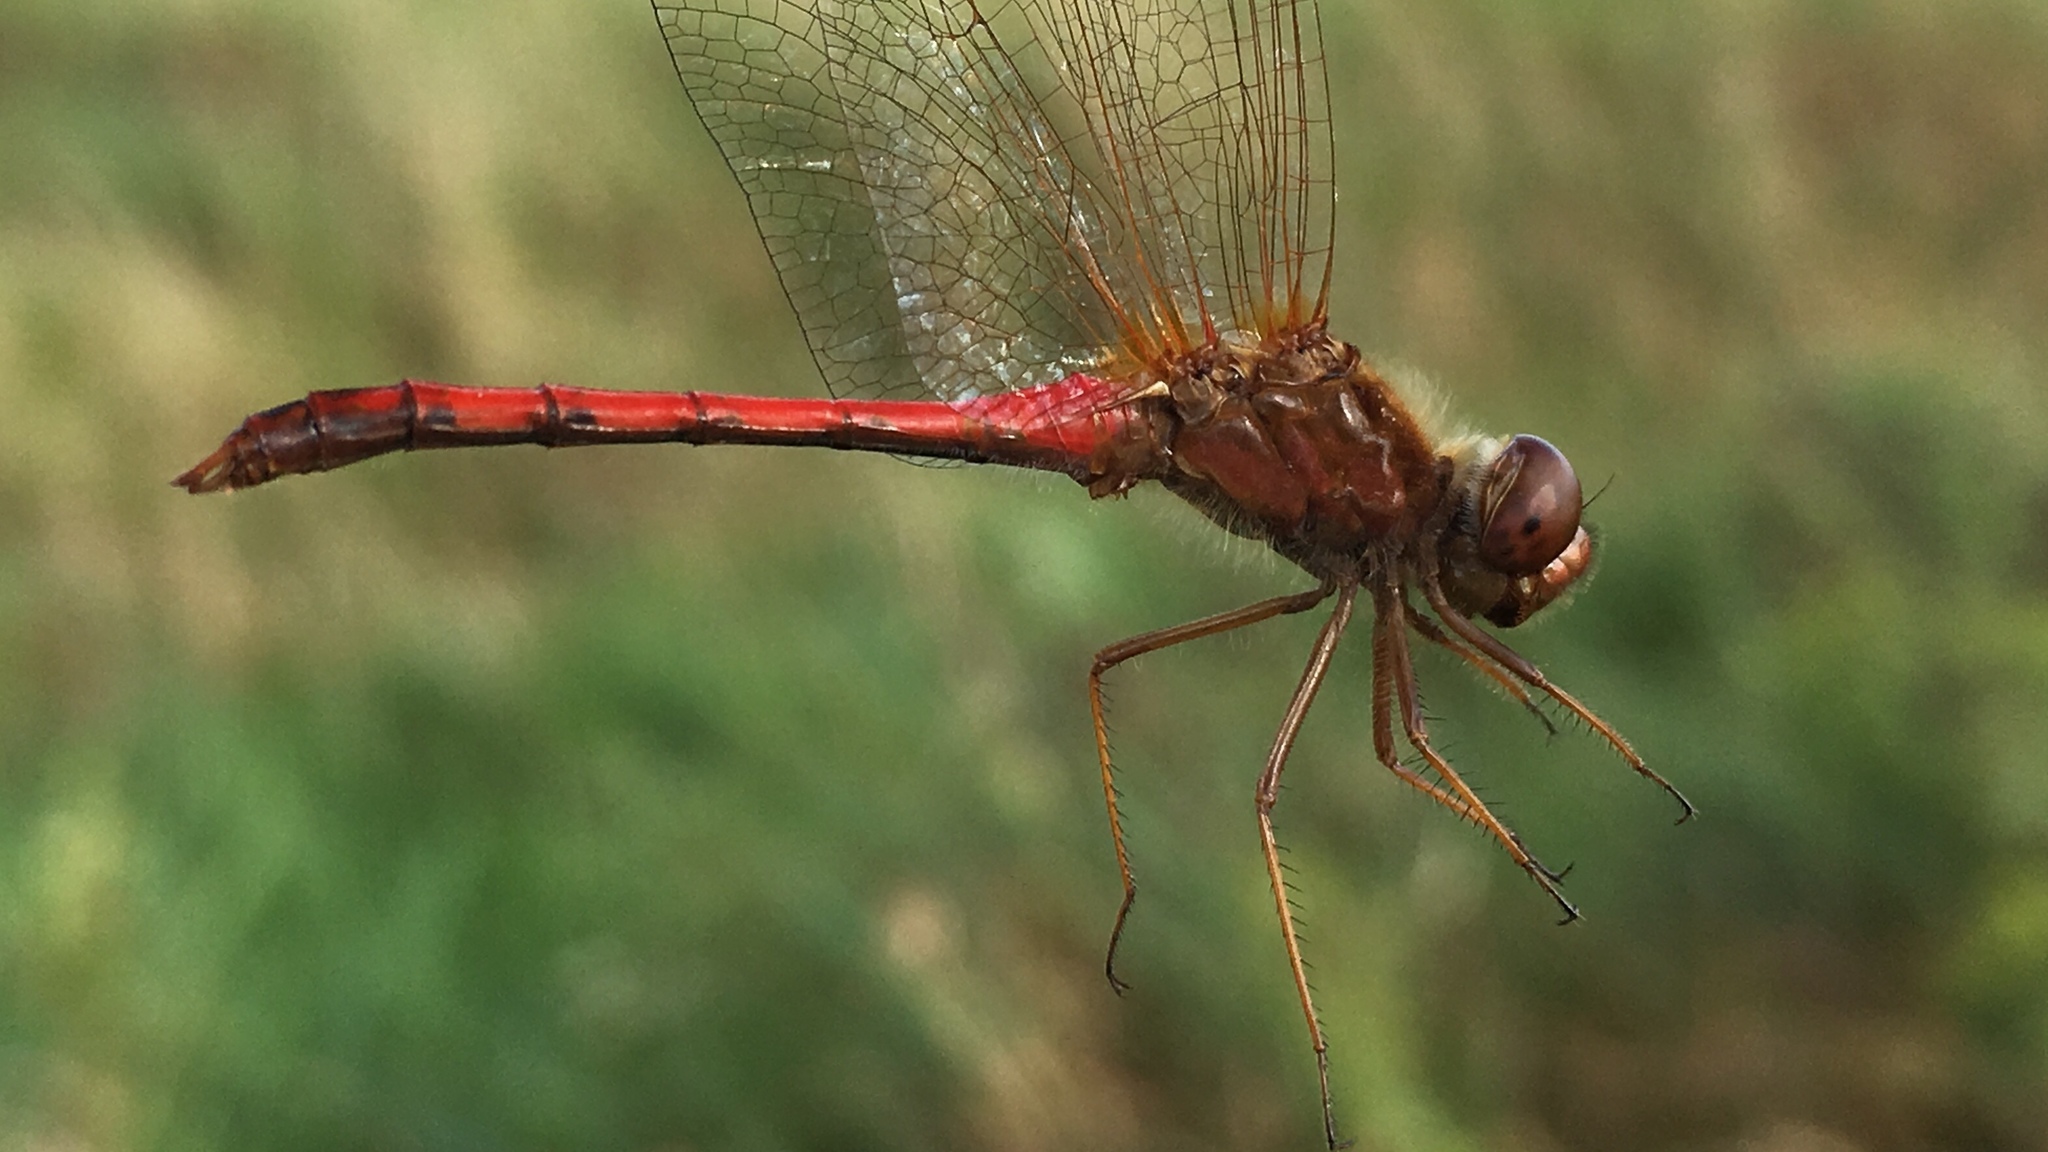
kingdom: Animalia
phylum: Arthropoda
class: Insecta
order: Odonata
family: Libellulidae
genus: Sympetrum
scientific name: Sympetrum vicinum
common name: Autumn meadowhawk
